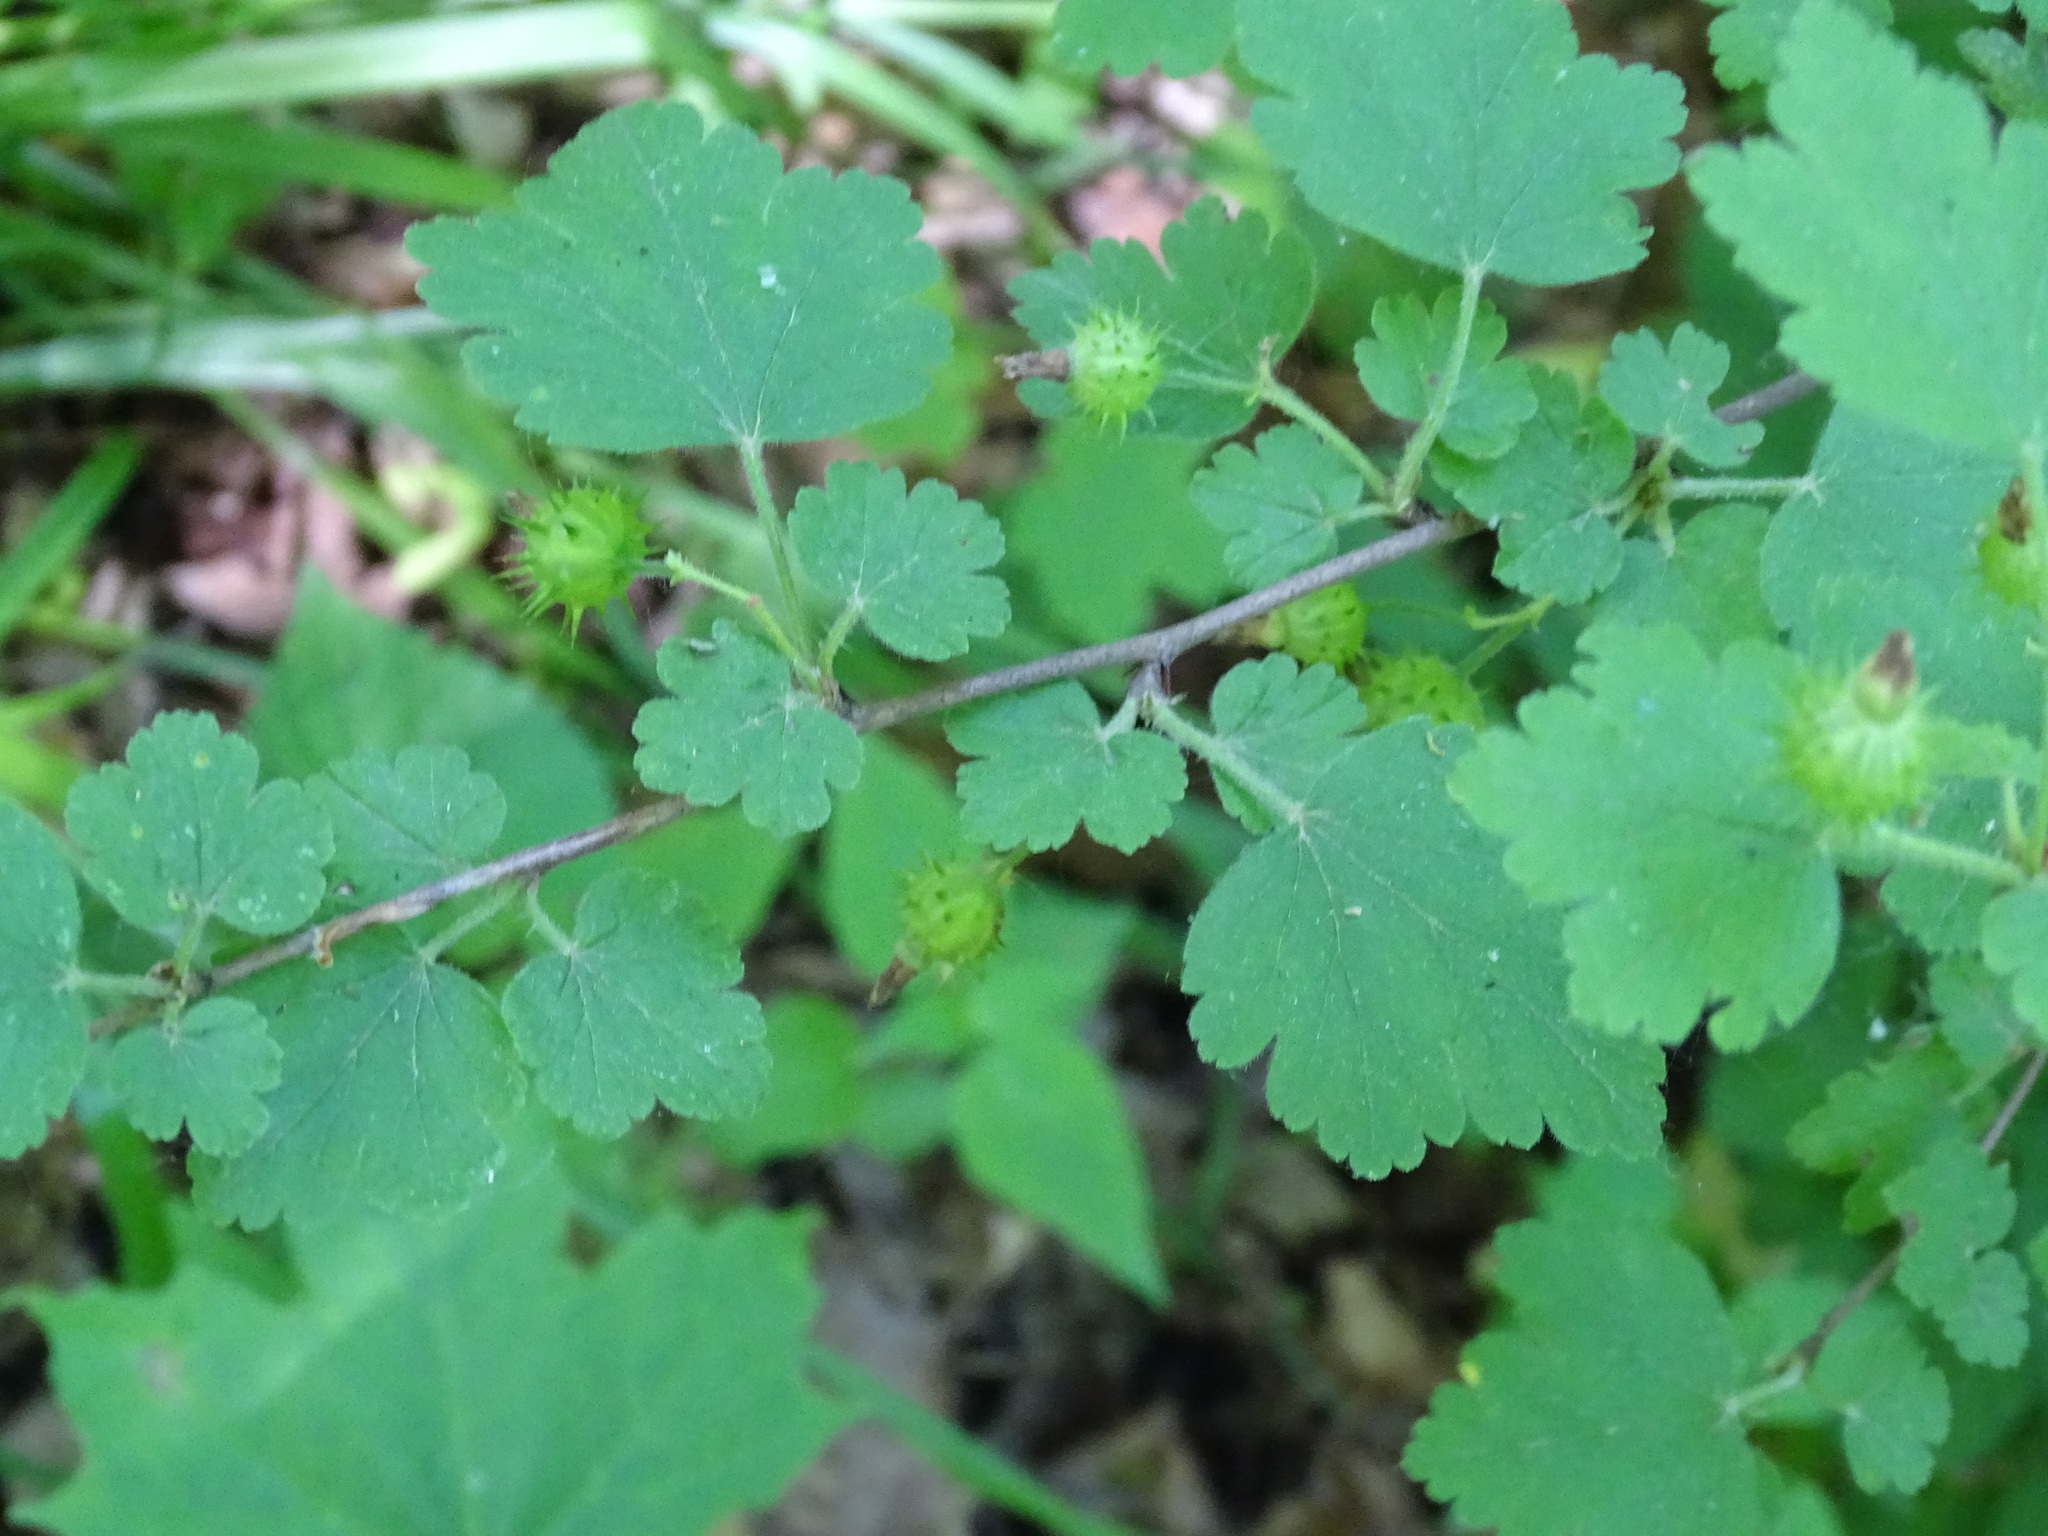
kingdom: Plantae
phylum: Tracheophyta
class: Magnoliopsida
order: Saxifragales
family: Grossulariaceae
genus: Ribes
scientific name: Ribes cynosbati
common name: American gooseberry
